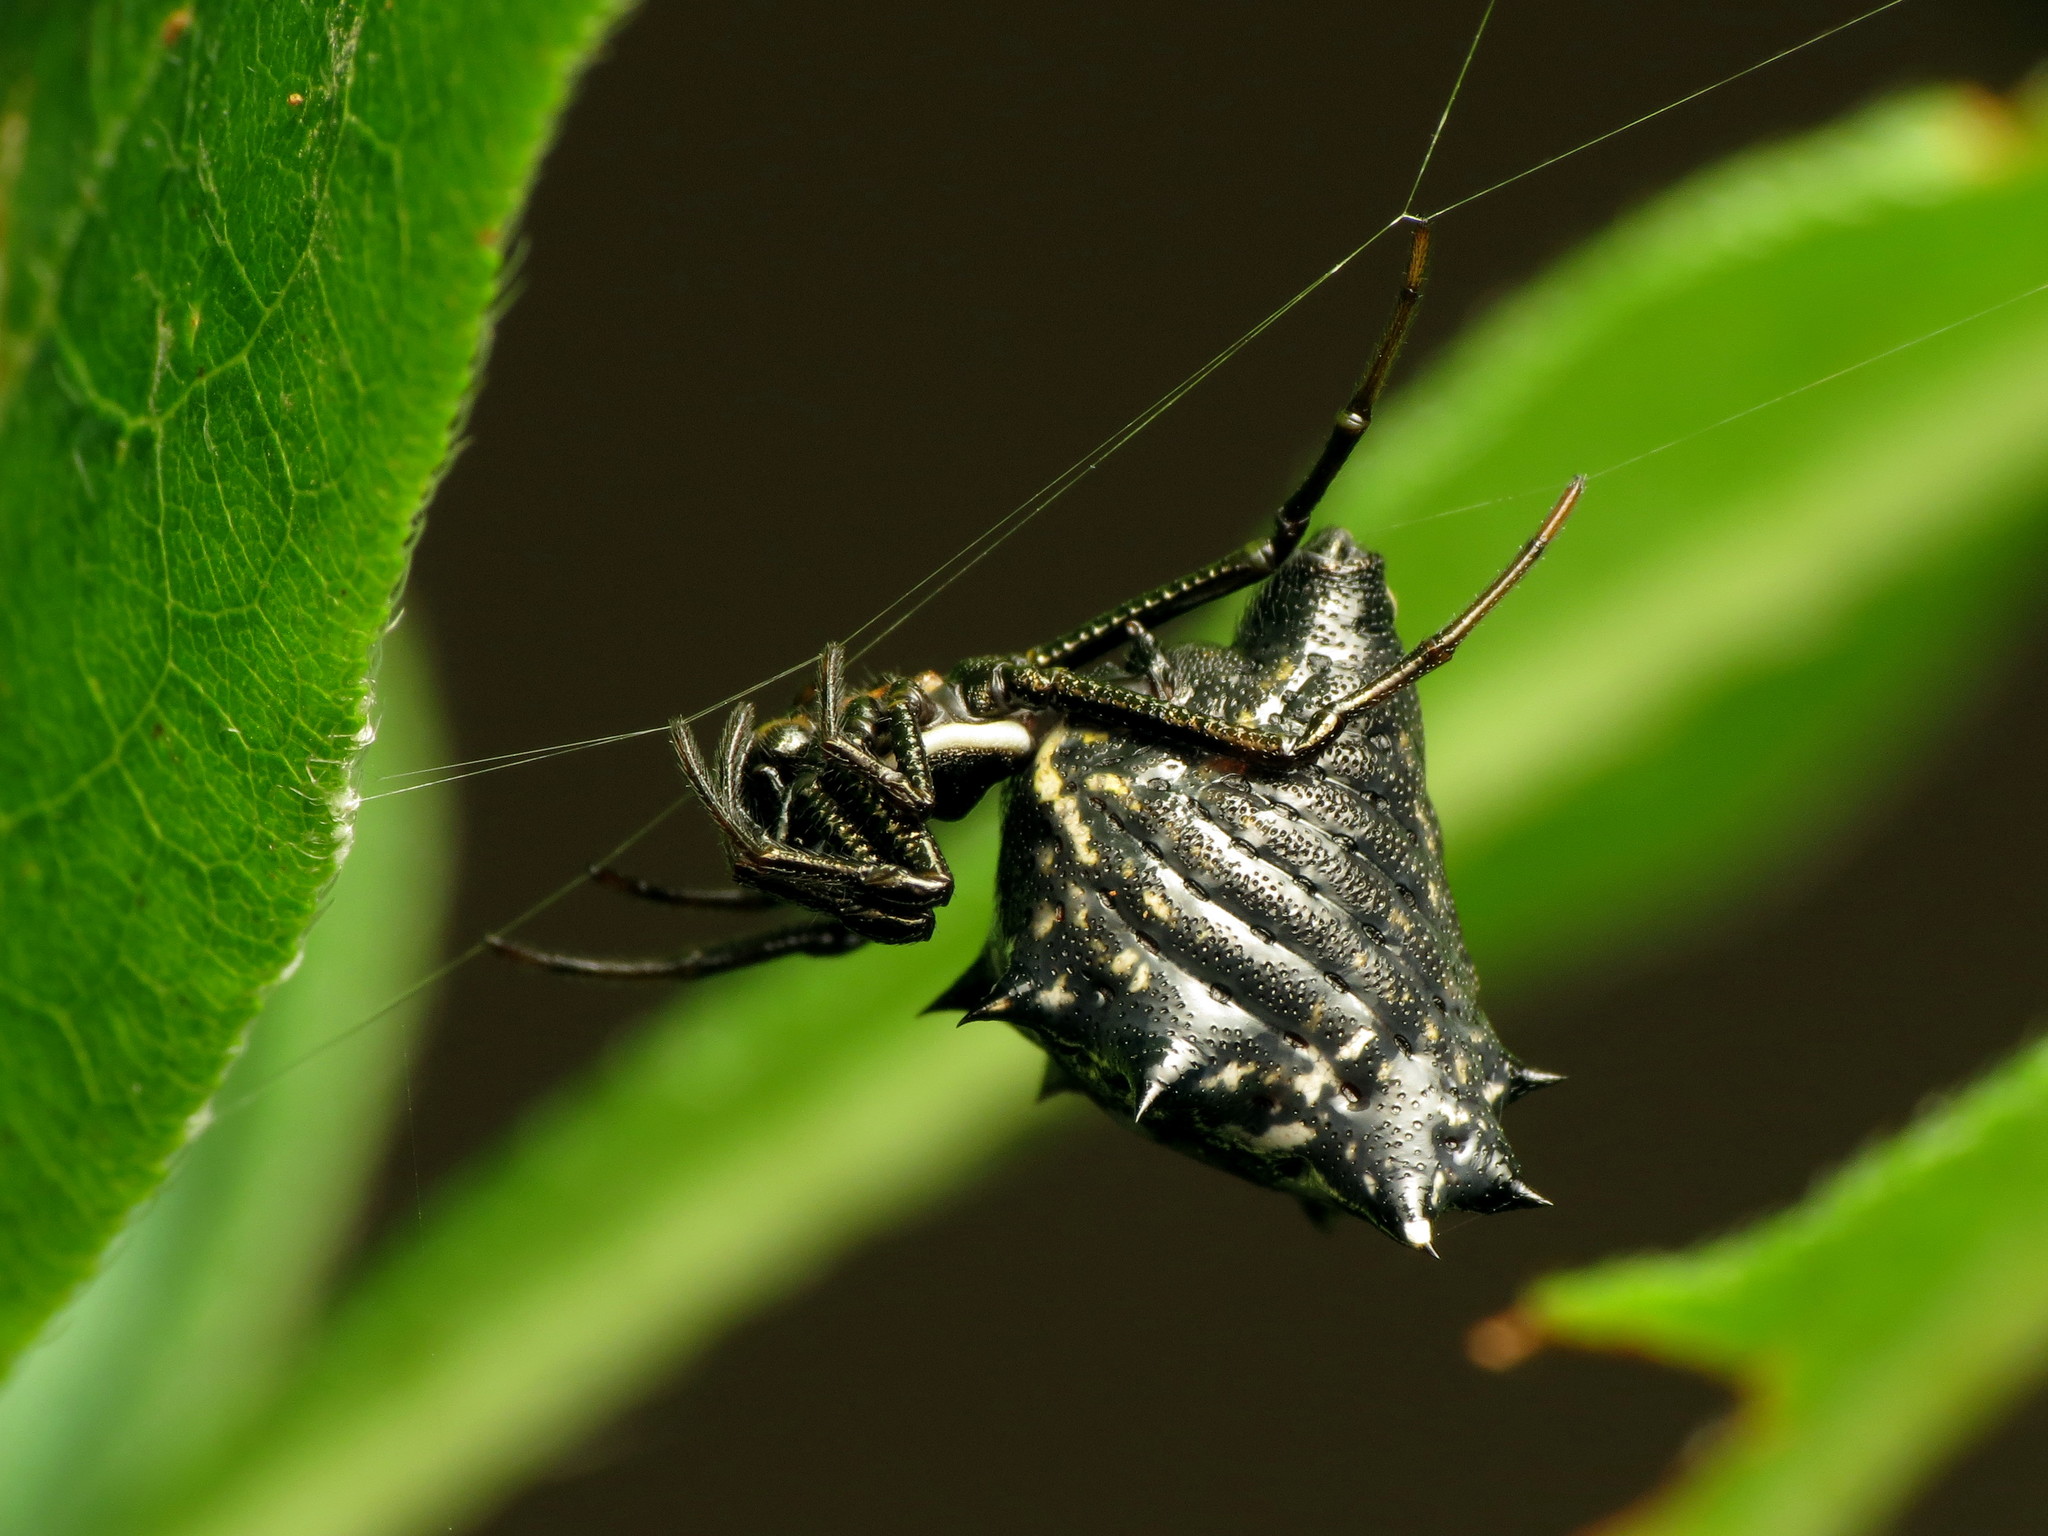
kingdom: Animalia
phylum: Arthropoda
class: Arachnida
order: Araneae
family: Araneidae
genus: Micrathena
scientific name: Micrathena gracilis
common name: Orb weavers
